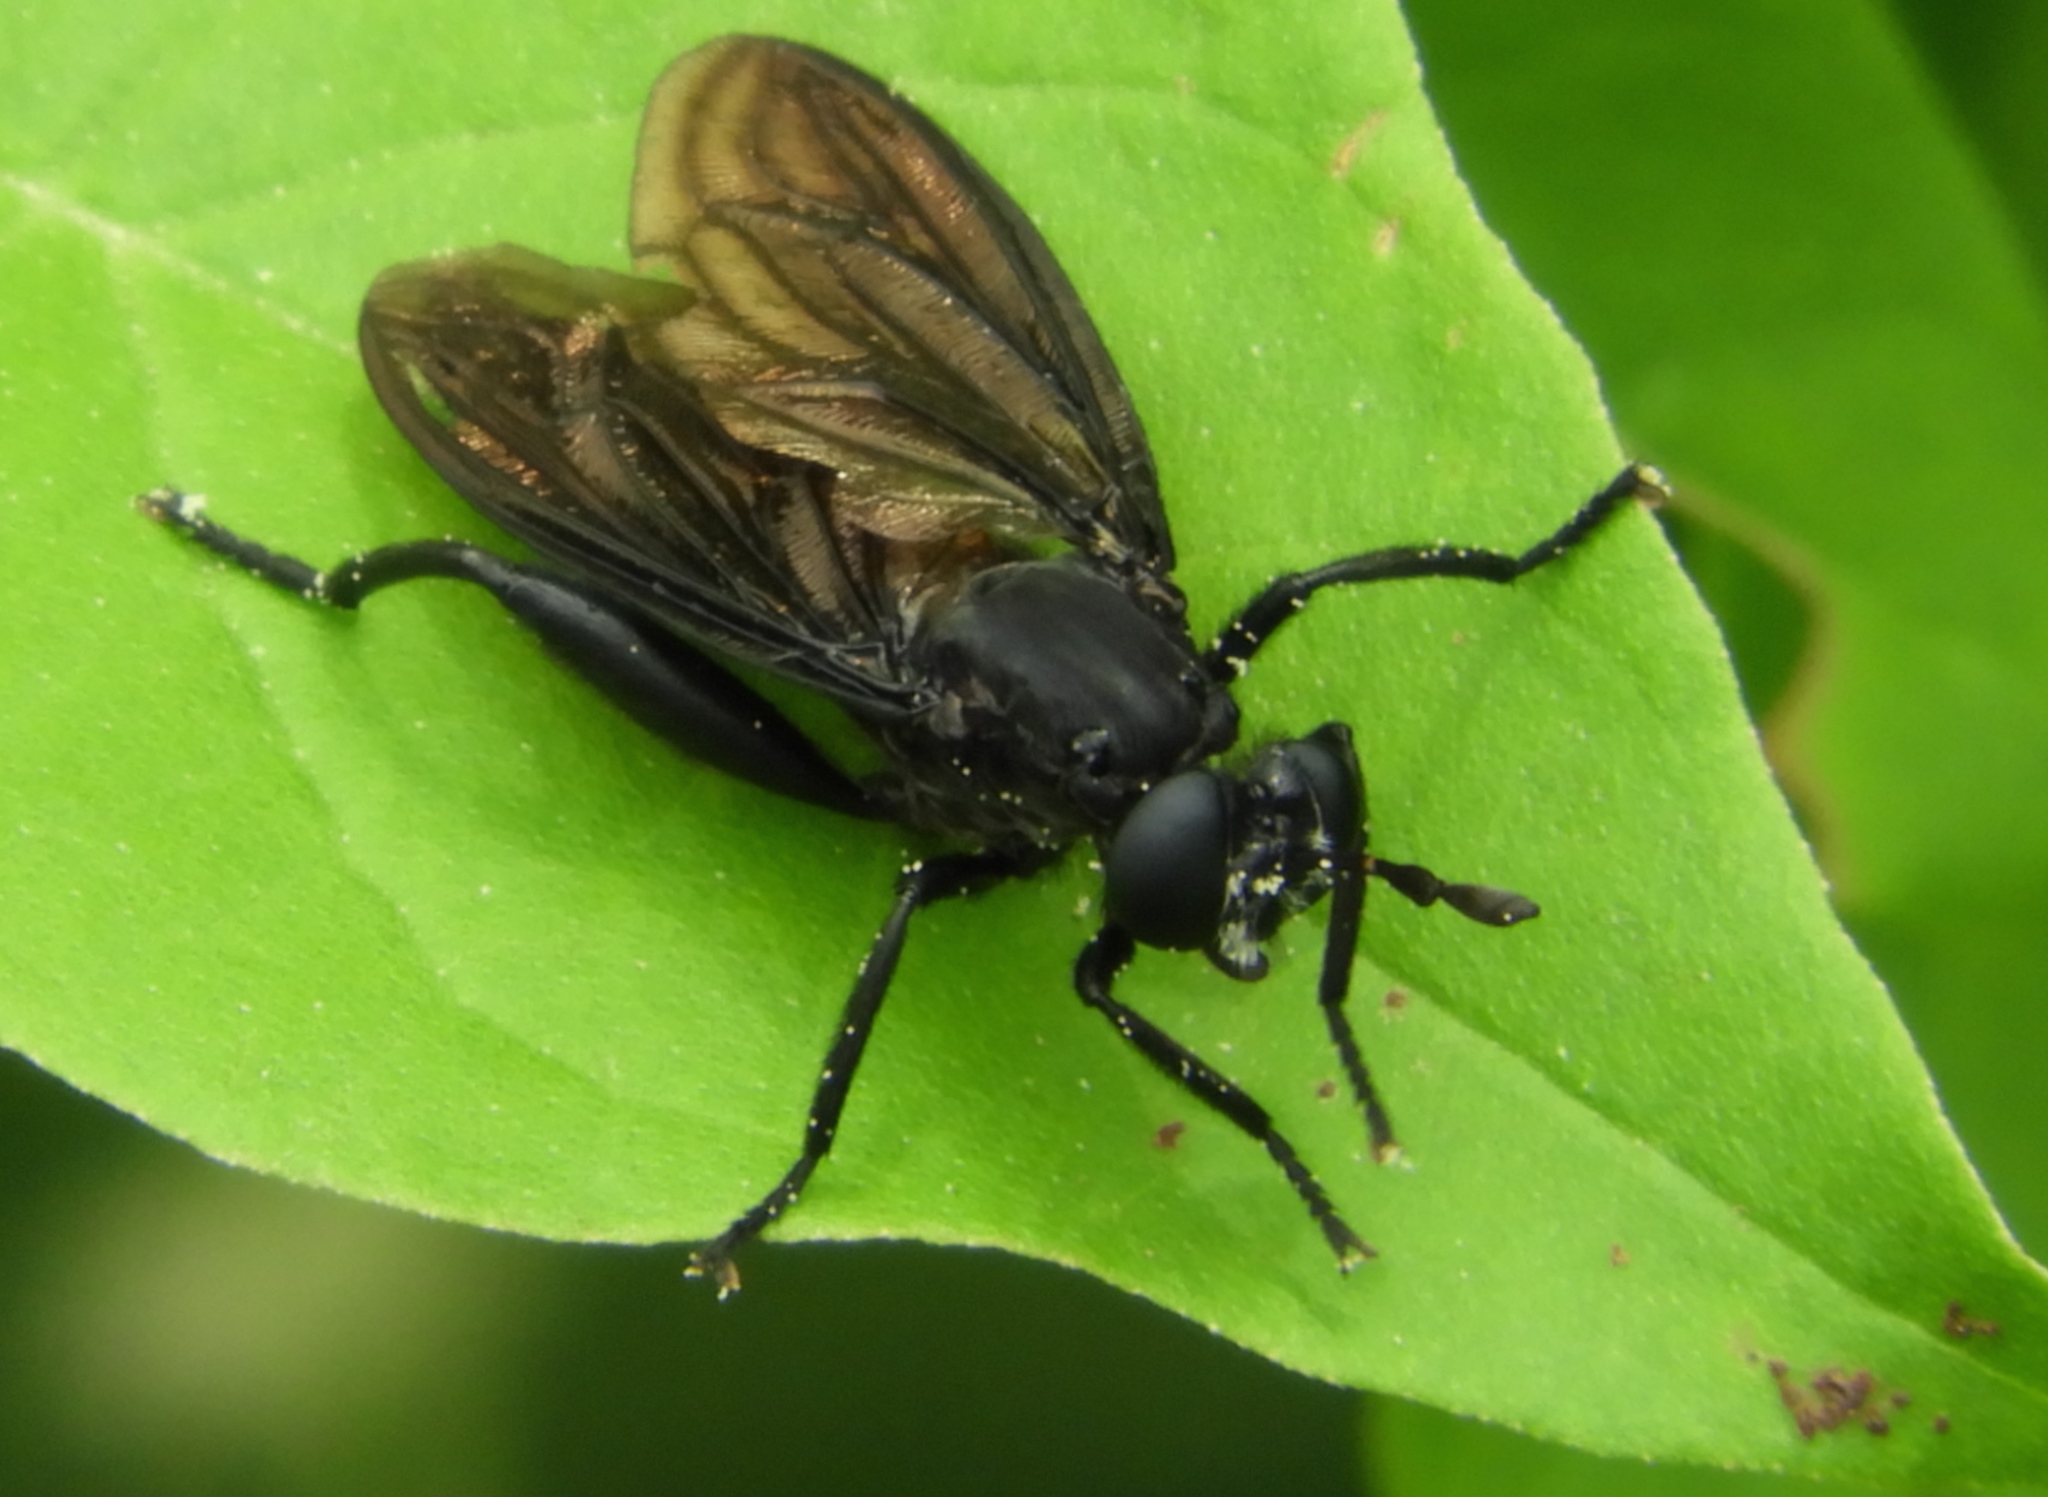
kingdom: Animalia
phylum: Arthropoda
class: Insecta
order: Diptera
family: Mydidae
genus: Messiasia
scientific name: Messiasia
